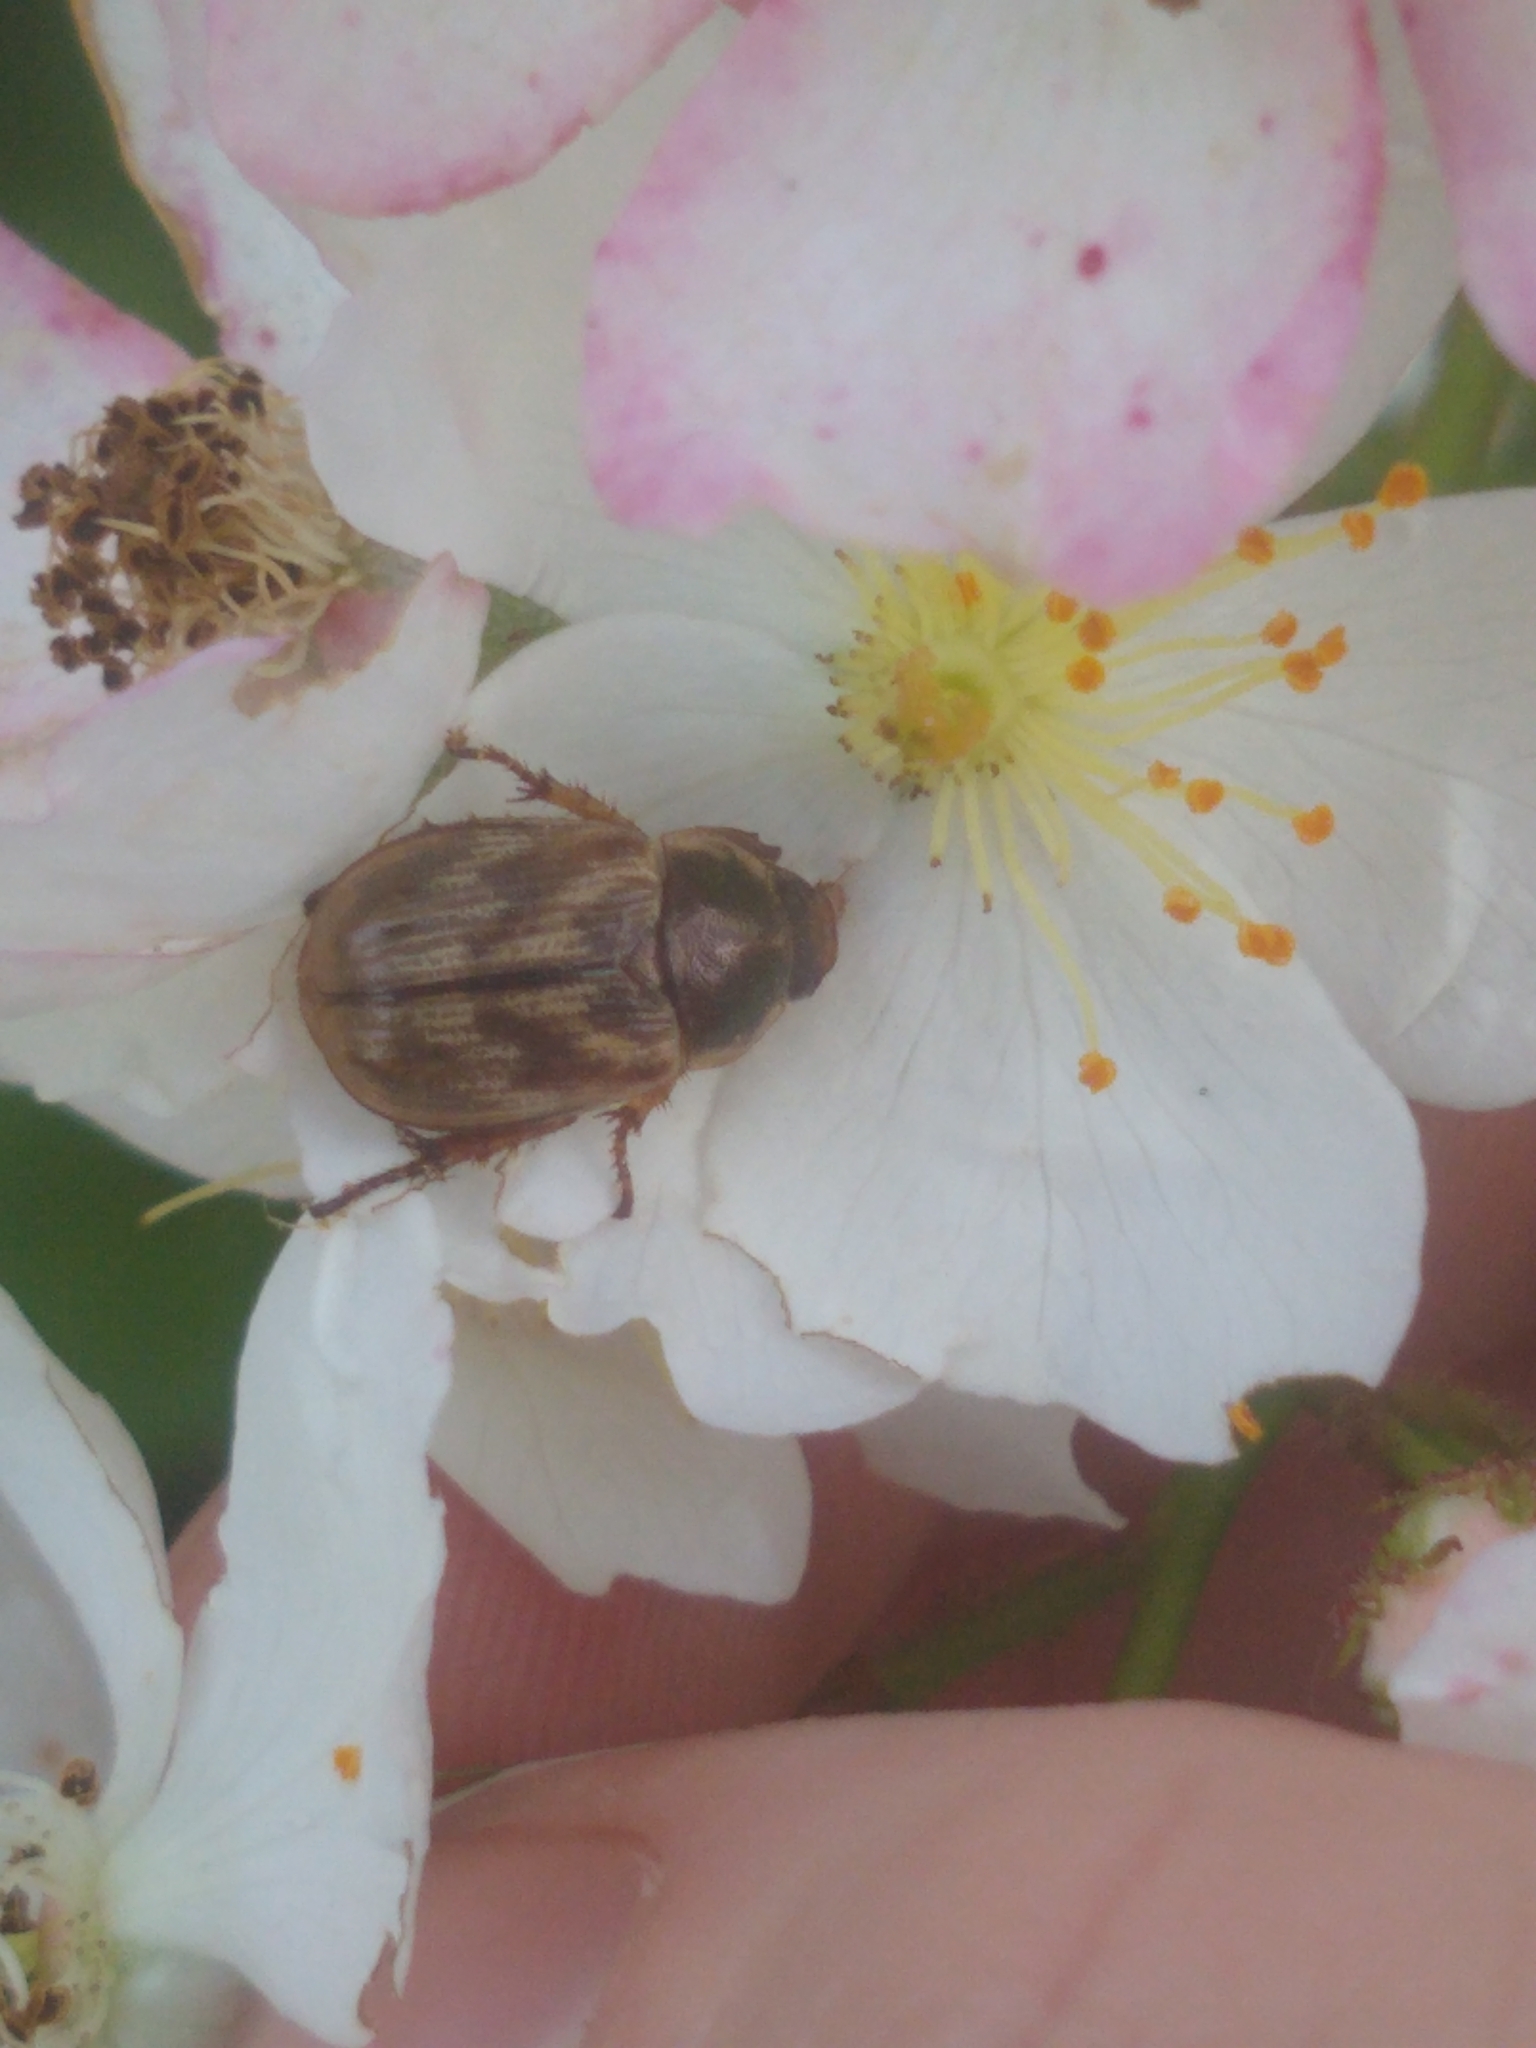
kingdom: Animalia
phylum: Arthropoda
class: Insecta
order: Coleoptera
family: Scarabaeidae
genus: Exomala
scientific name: Exomala orientalis
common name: Oriental beetle
